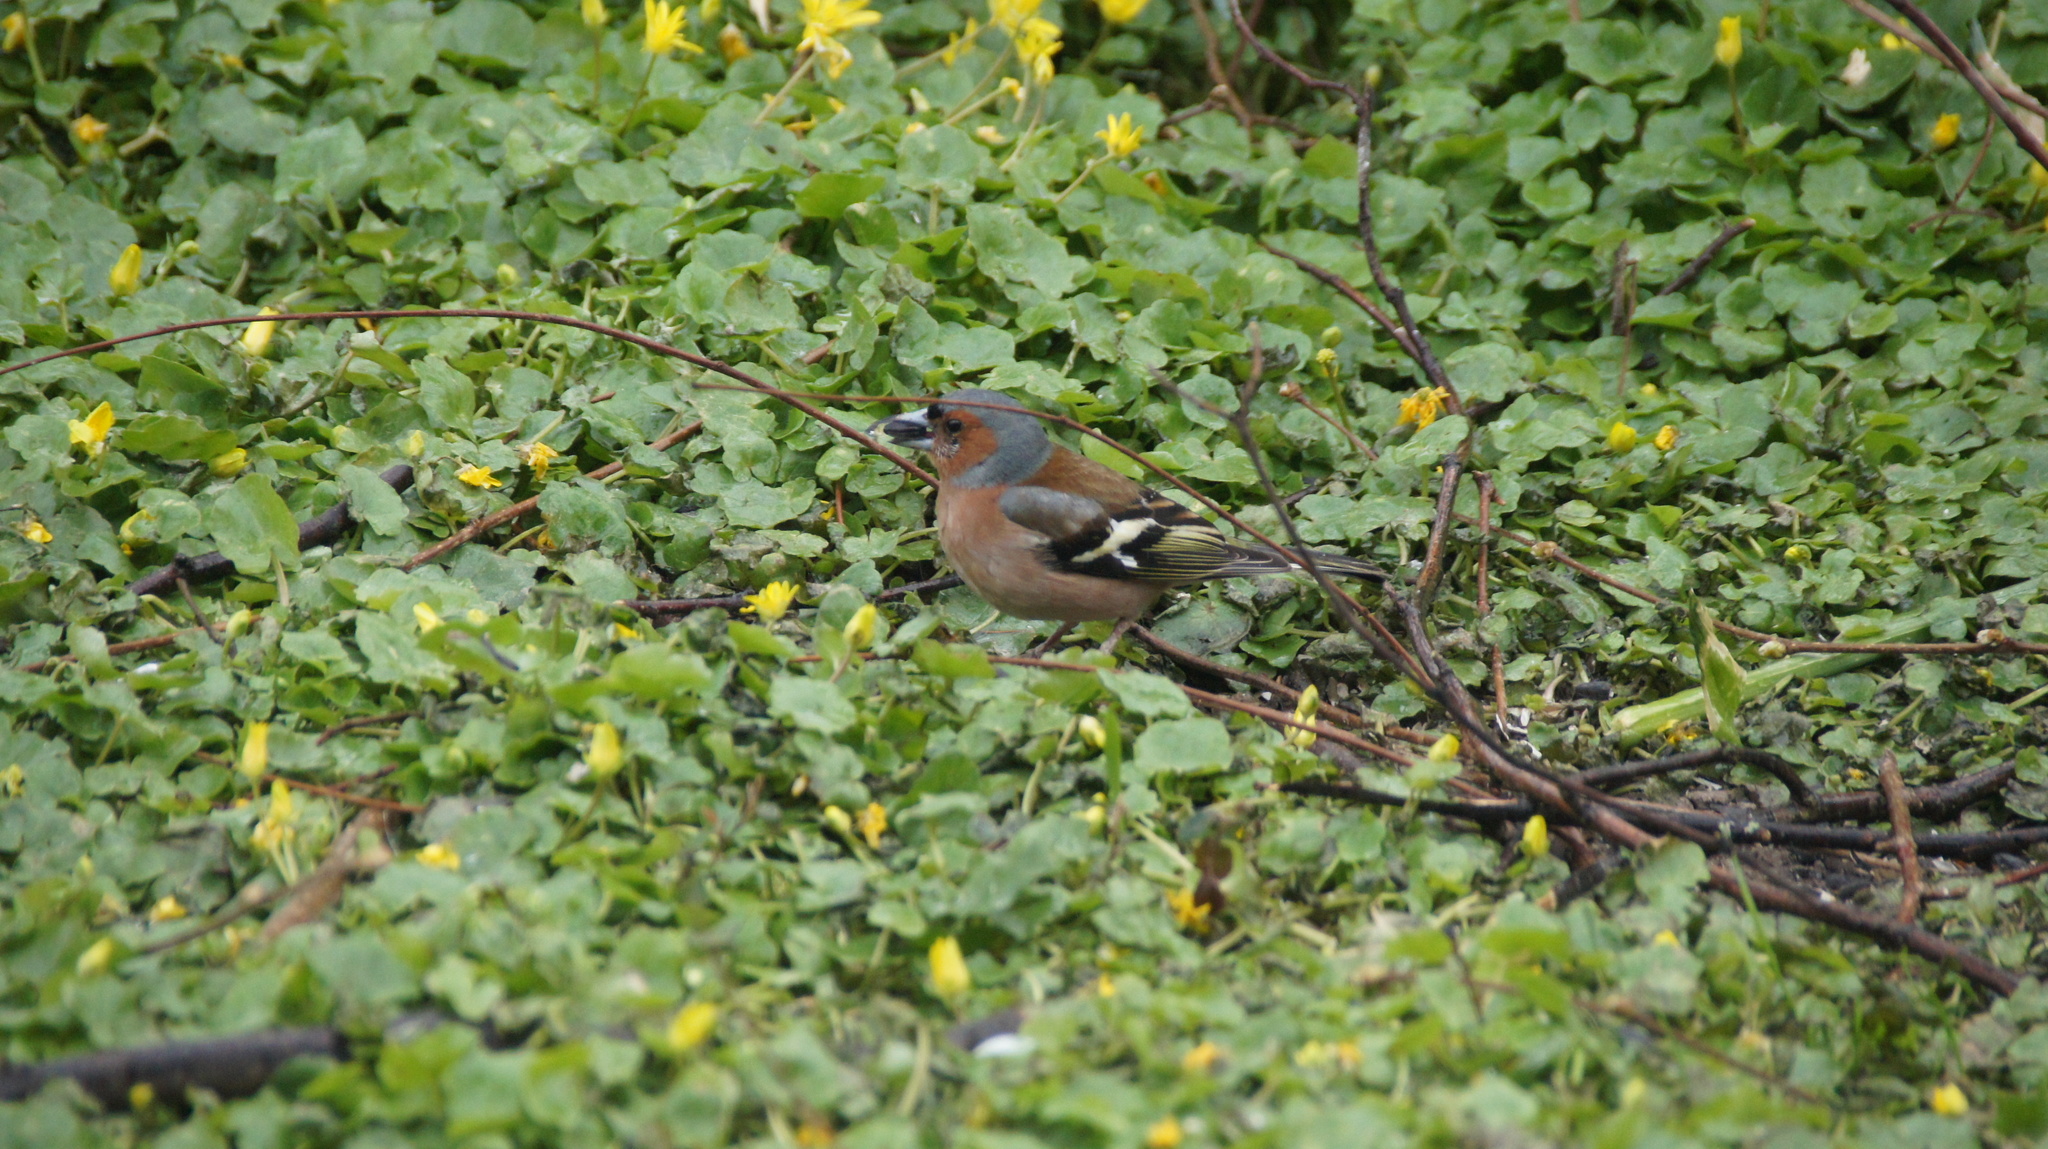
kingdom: Animalia
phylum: Chordata
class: Aves
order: Passeriformes
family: Fringillidae
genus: Fringilla
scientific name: Fringilla coelebs
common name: Common chaffinch
